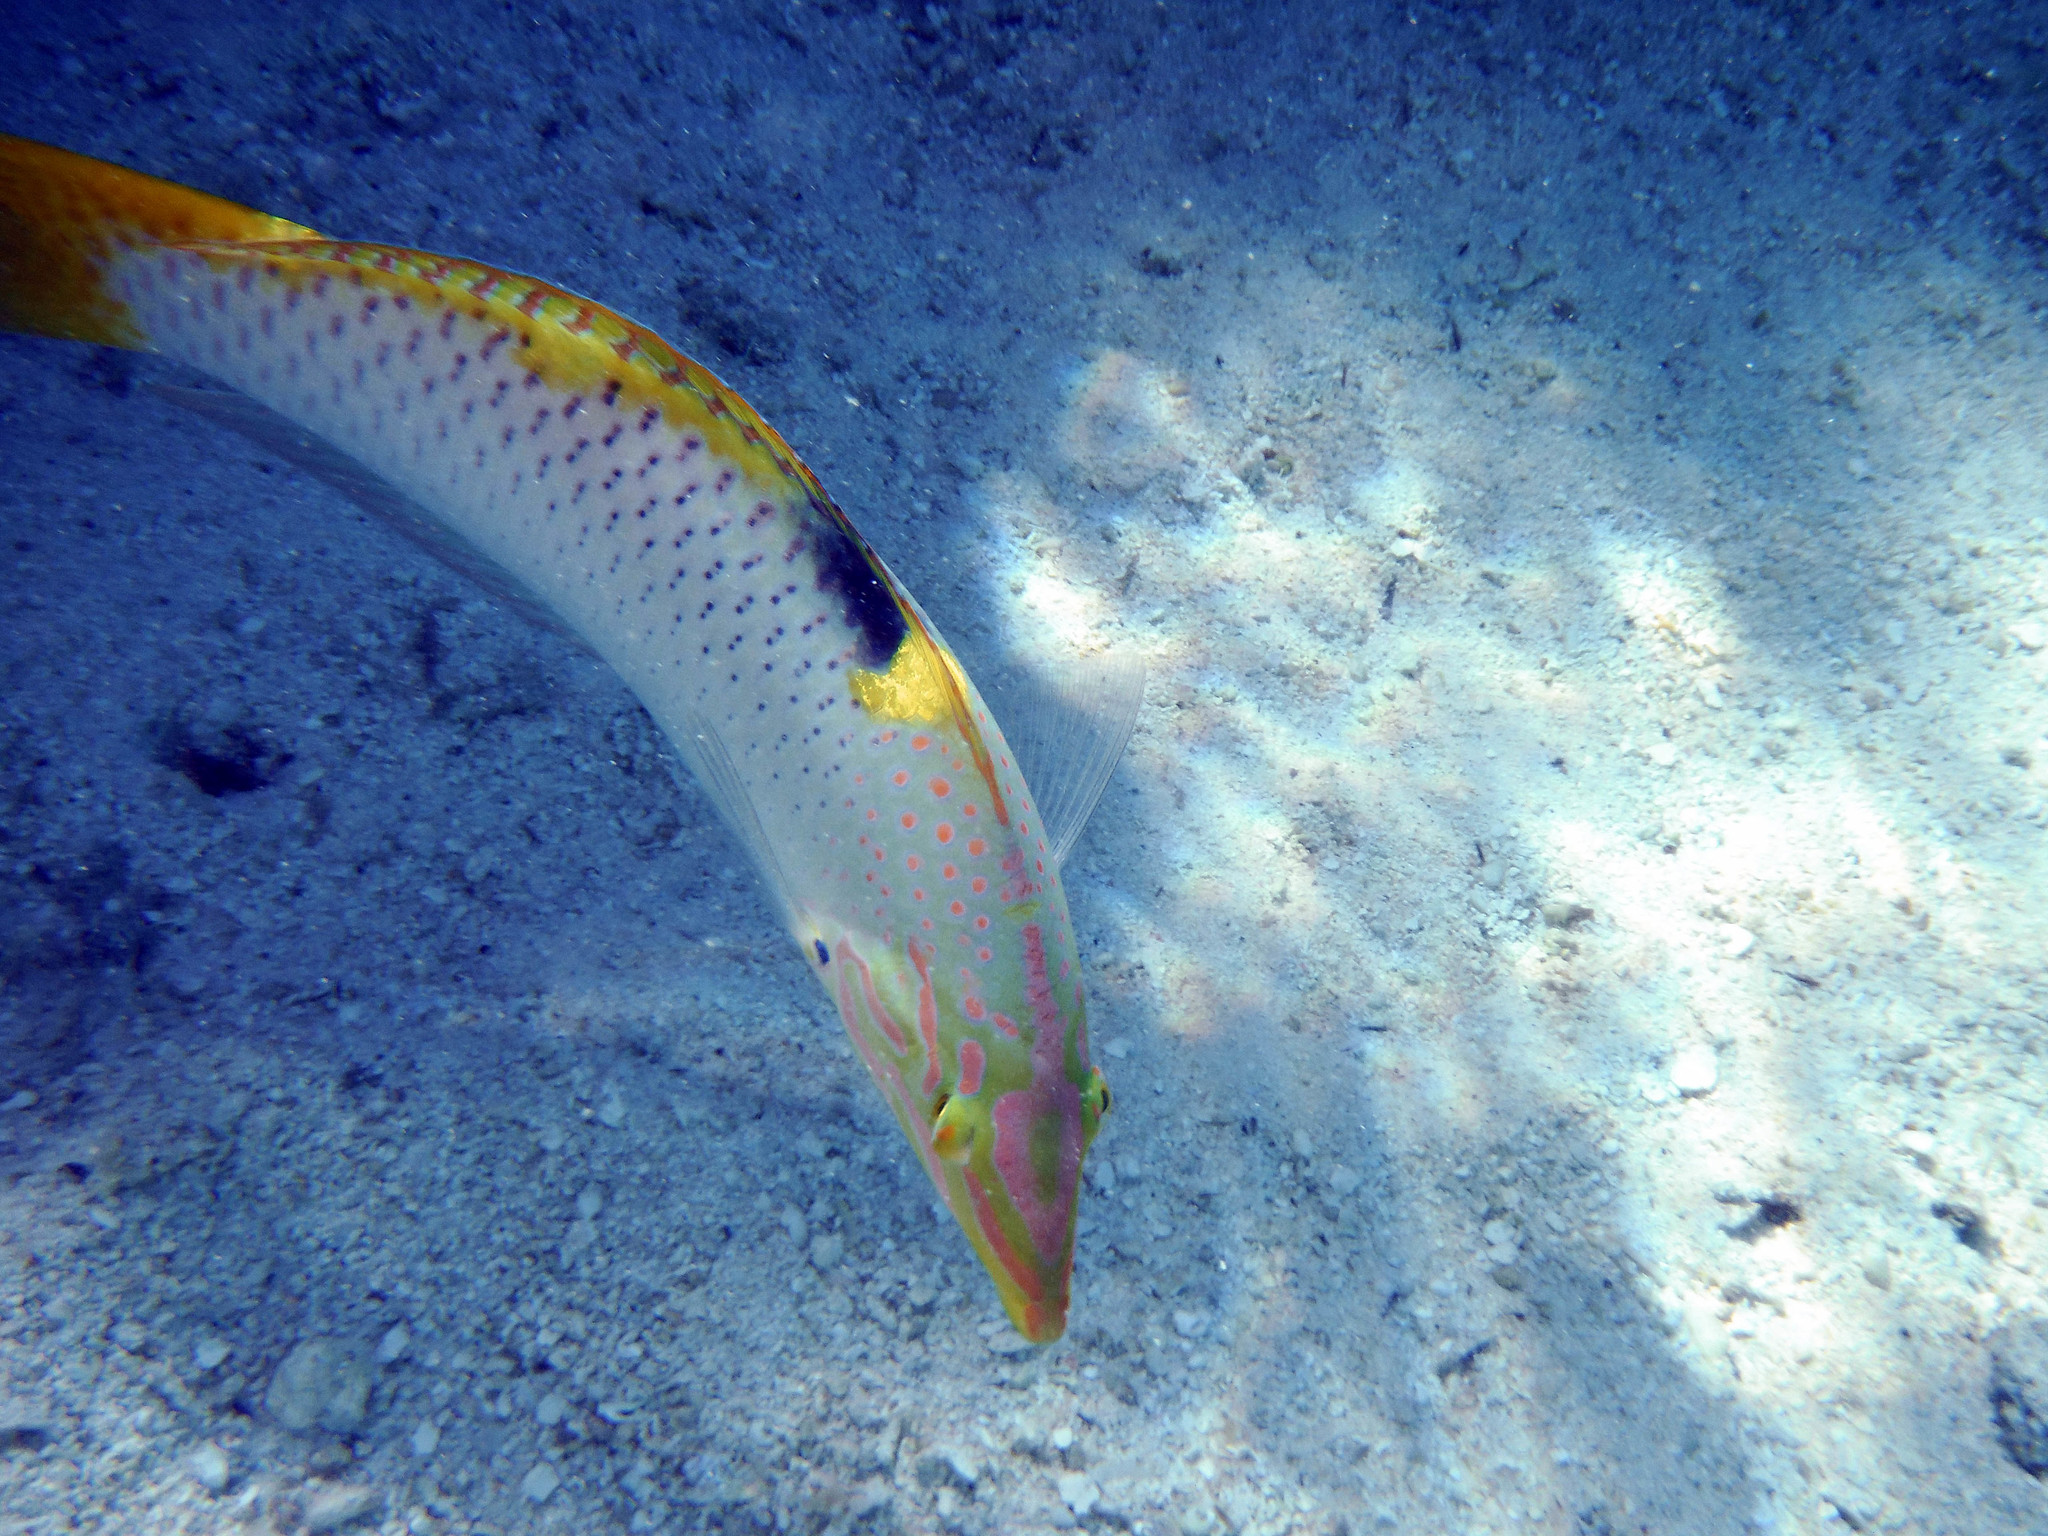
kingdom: Animalia
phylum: Chordata
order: Perciformes
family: Labridae
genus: Halichoeres
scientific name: Halichoeres hortulanus
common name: Checkerboard wrasse
